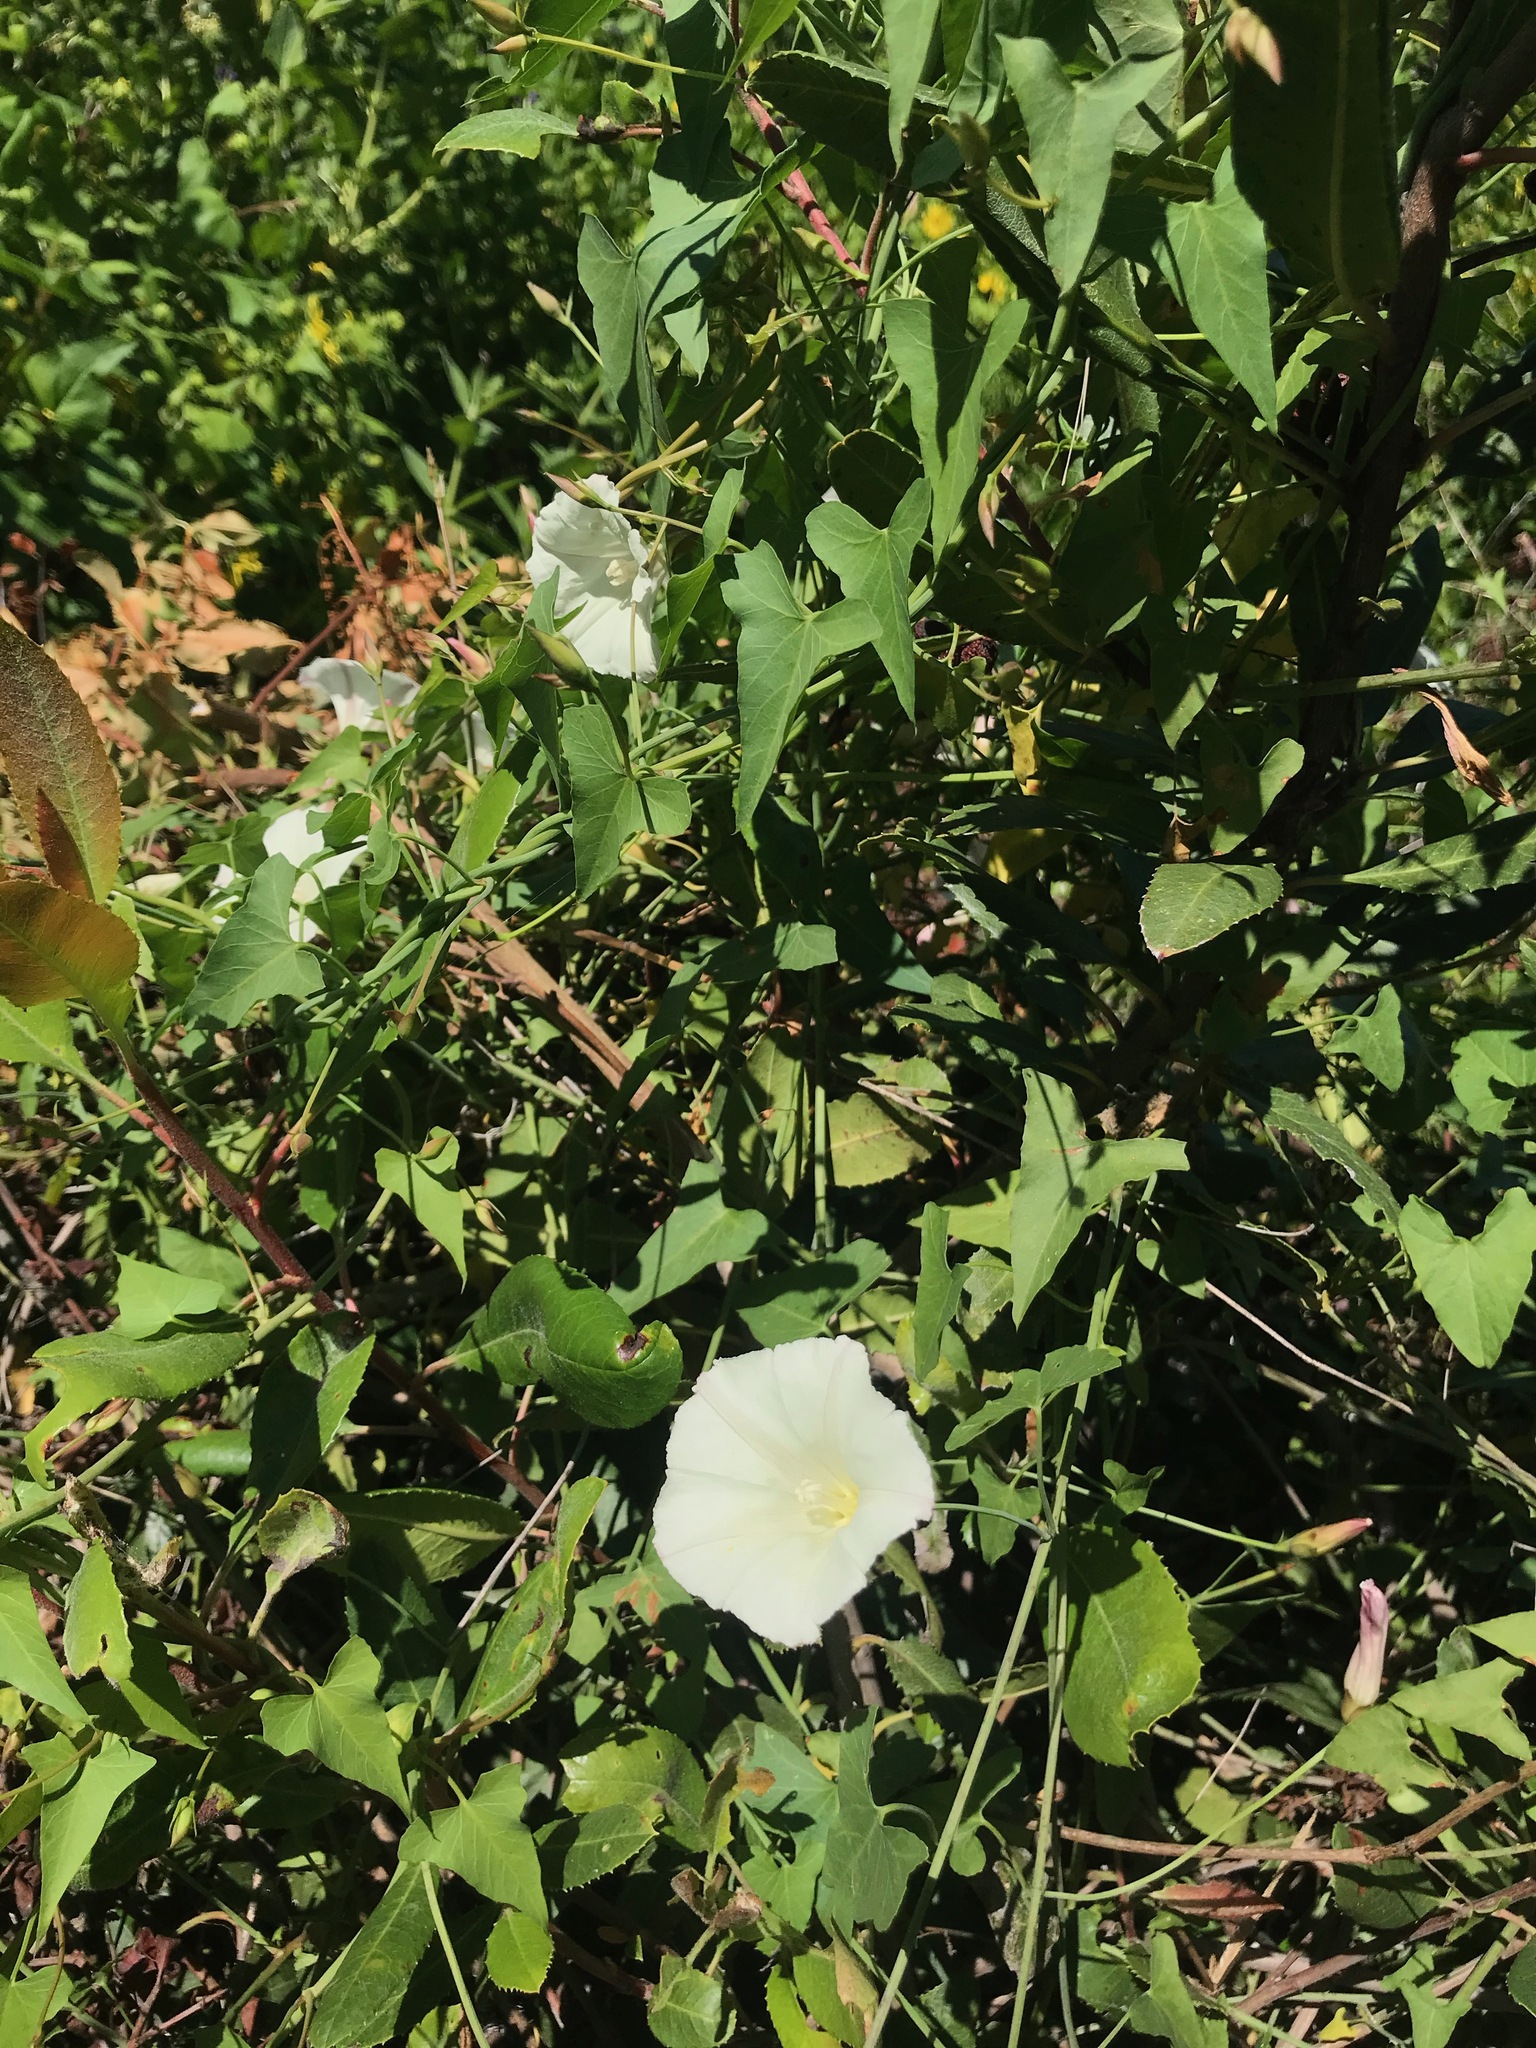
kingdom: Plantae
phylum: Tracheophyta
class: Magnoliopsida
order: Solanales
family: Convolvulaceae
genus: Calystegia
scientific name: Calystegia purpurata
